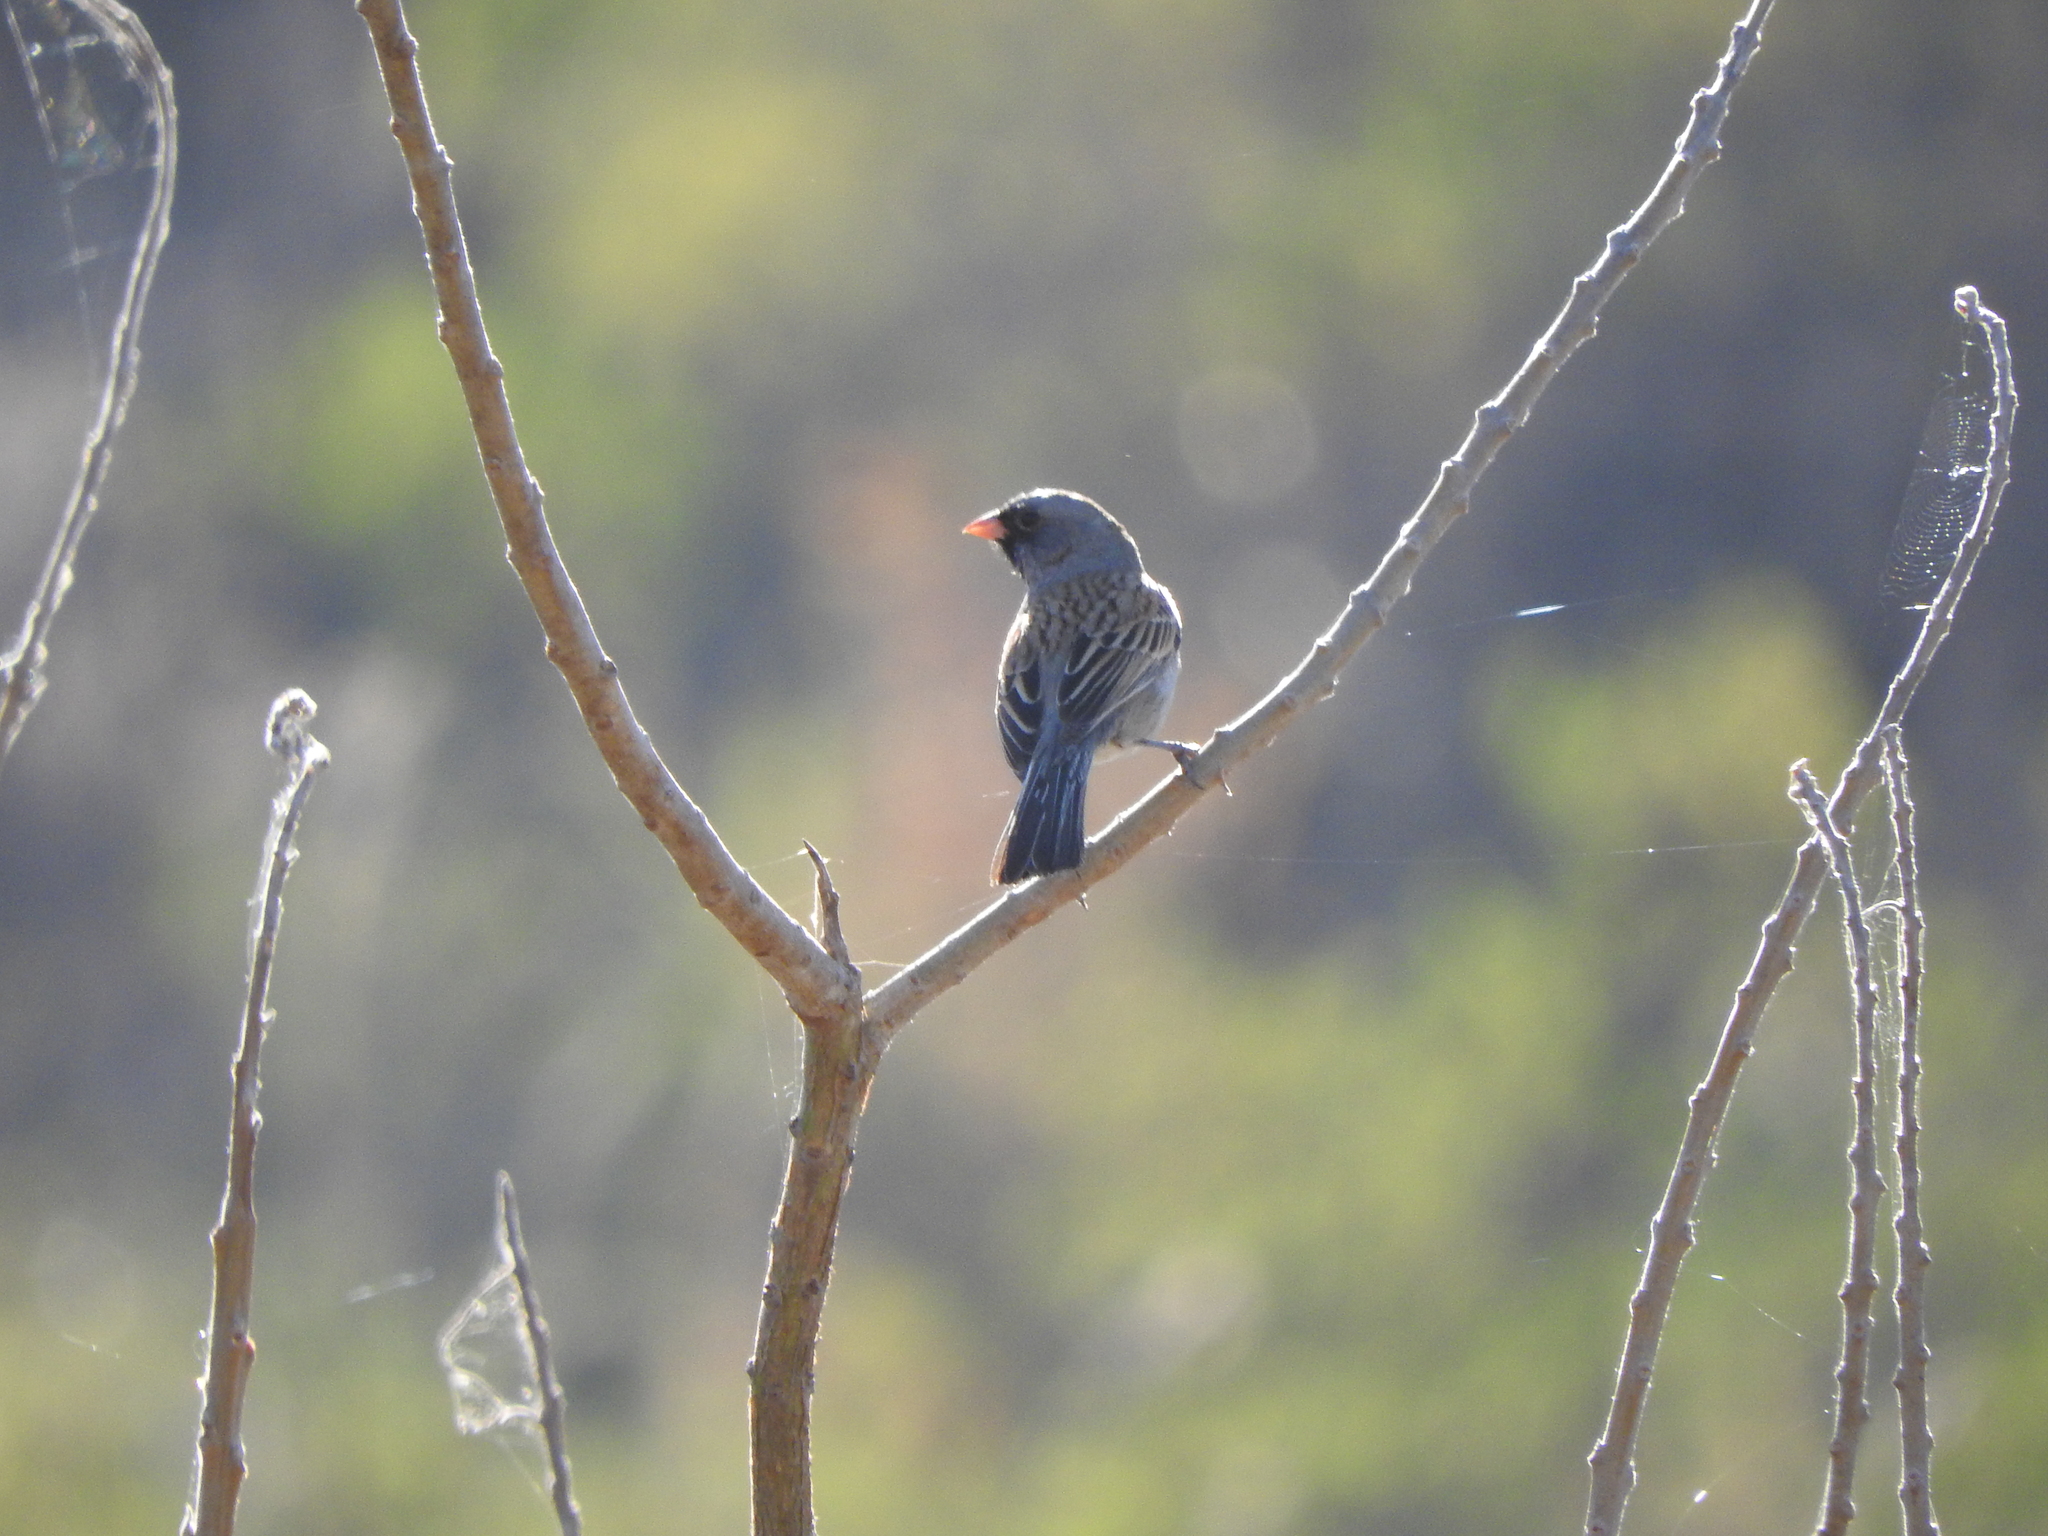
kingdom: Animalia
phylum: Chordata
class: Aves
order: Passeriformes
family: Passerellidae
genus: Spizella
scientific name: Spizella atrogularis
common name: Black-chinned sparrow
